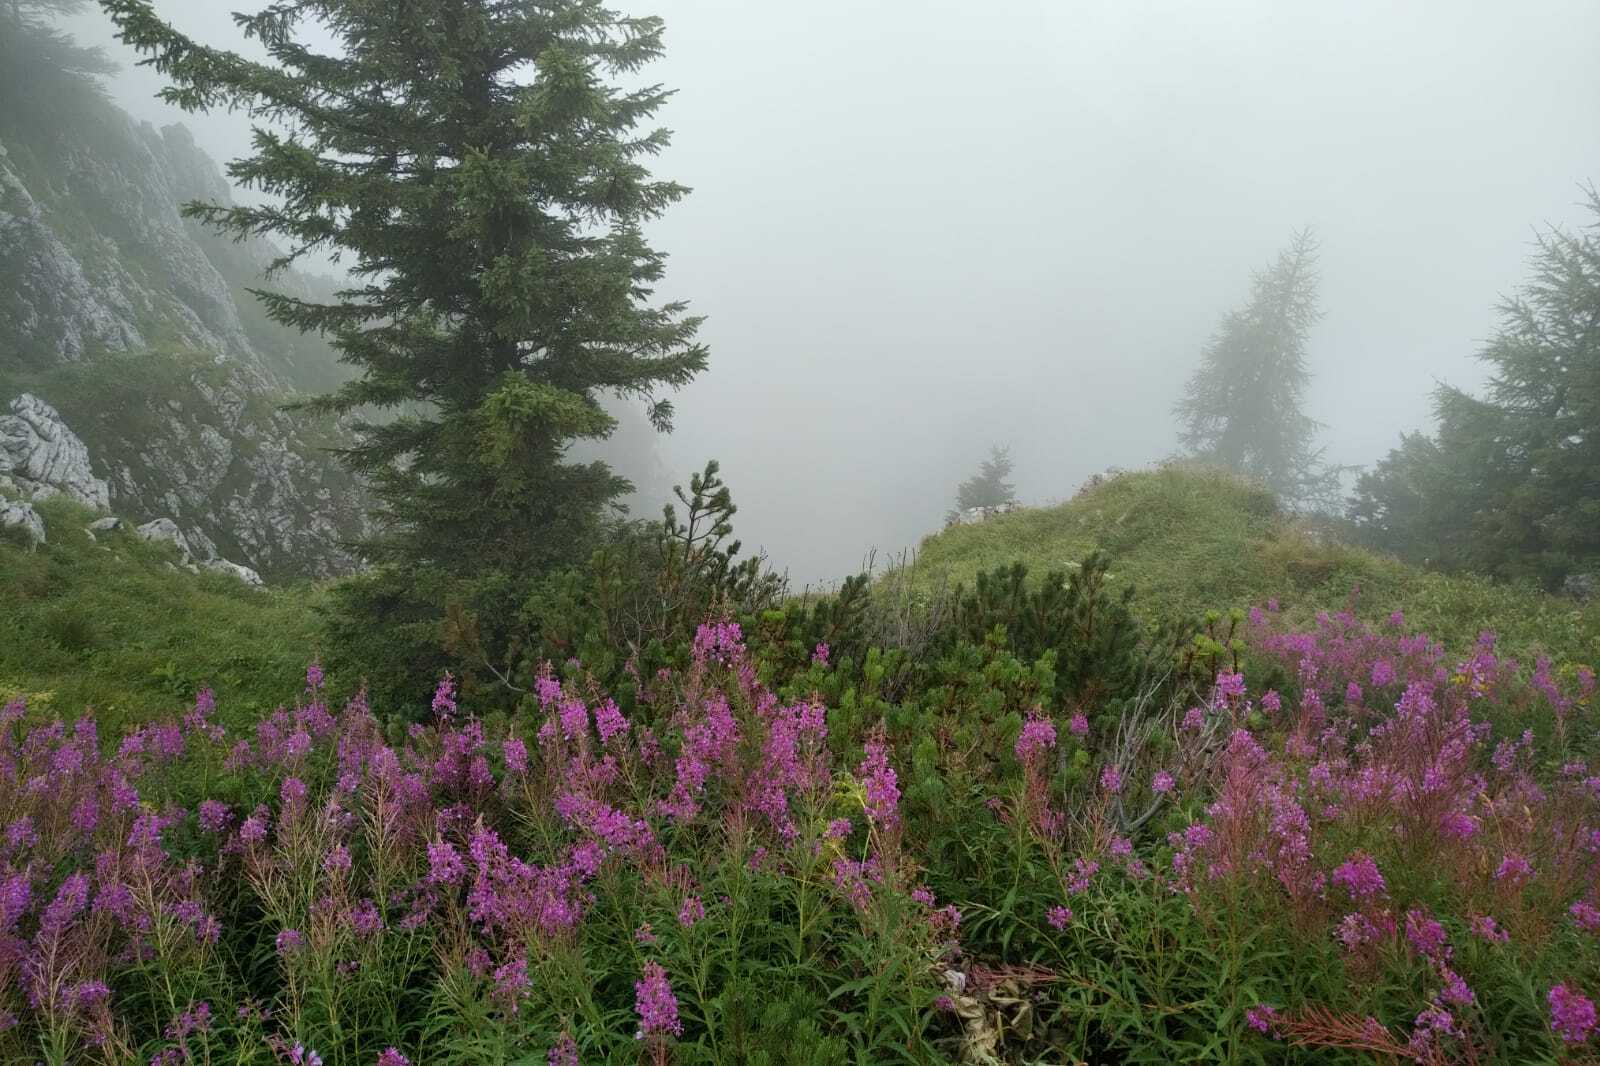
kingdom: Plantae
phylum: Tracheophyta
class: Magnoliopsida
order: Myrtales
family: Onagraceae
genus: Chamaenerion
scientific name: Chamaenerion angustifolium
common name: Fireweed
